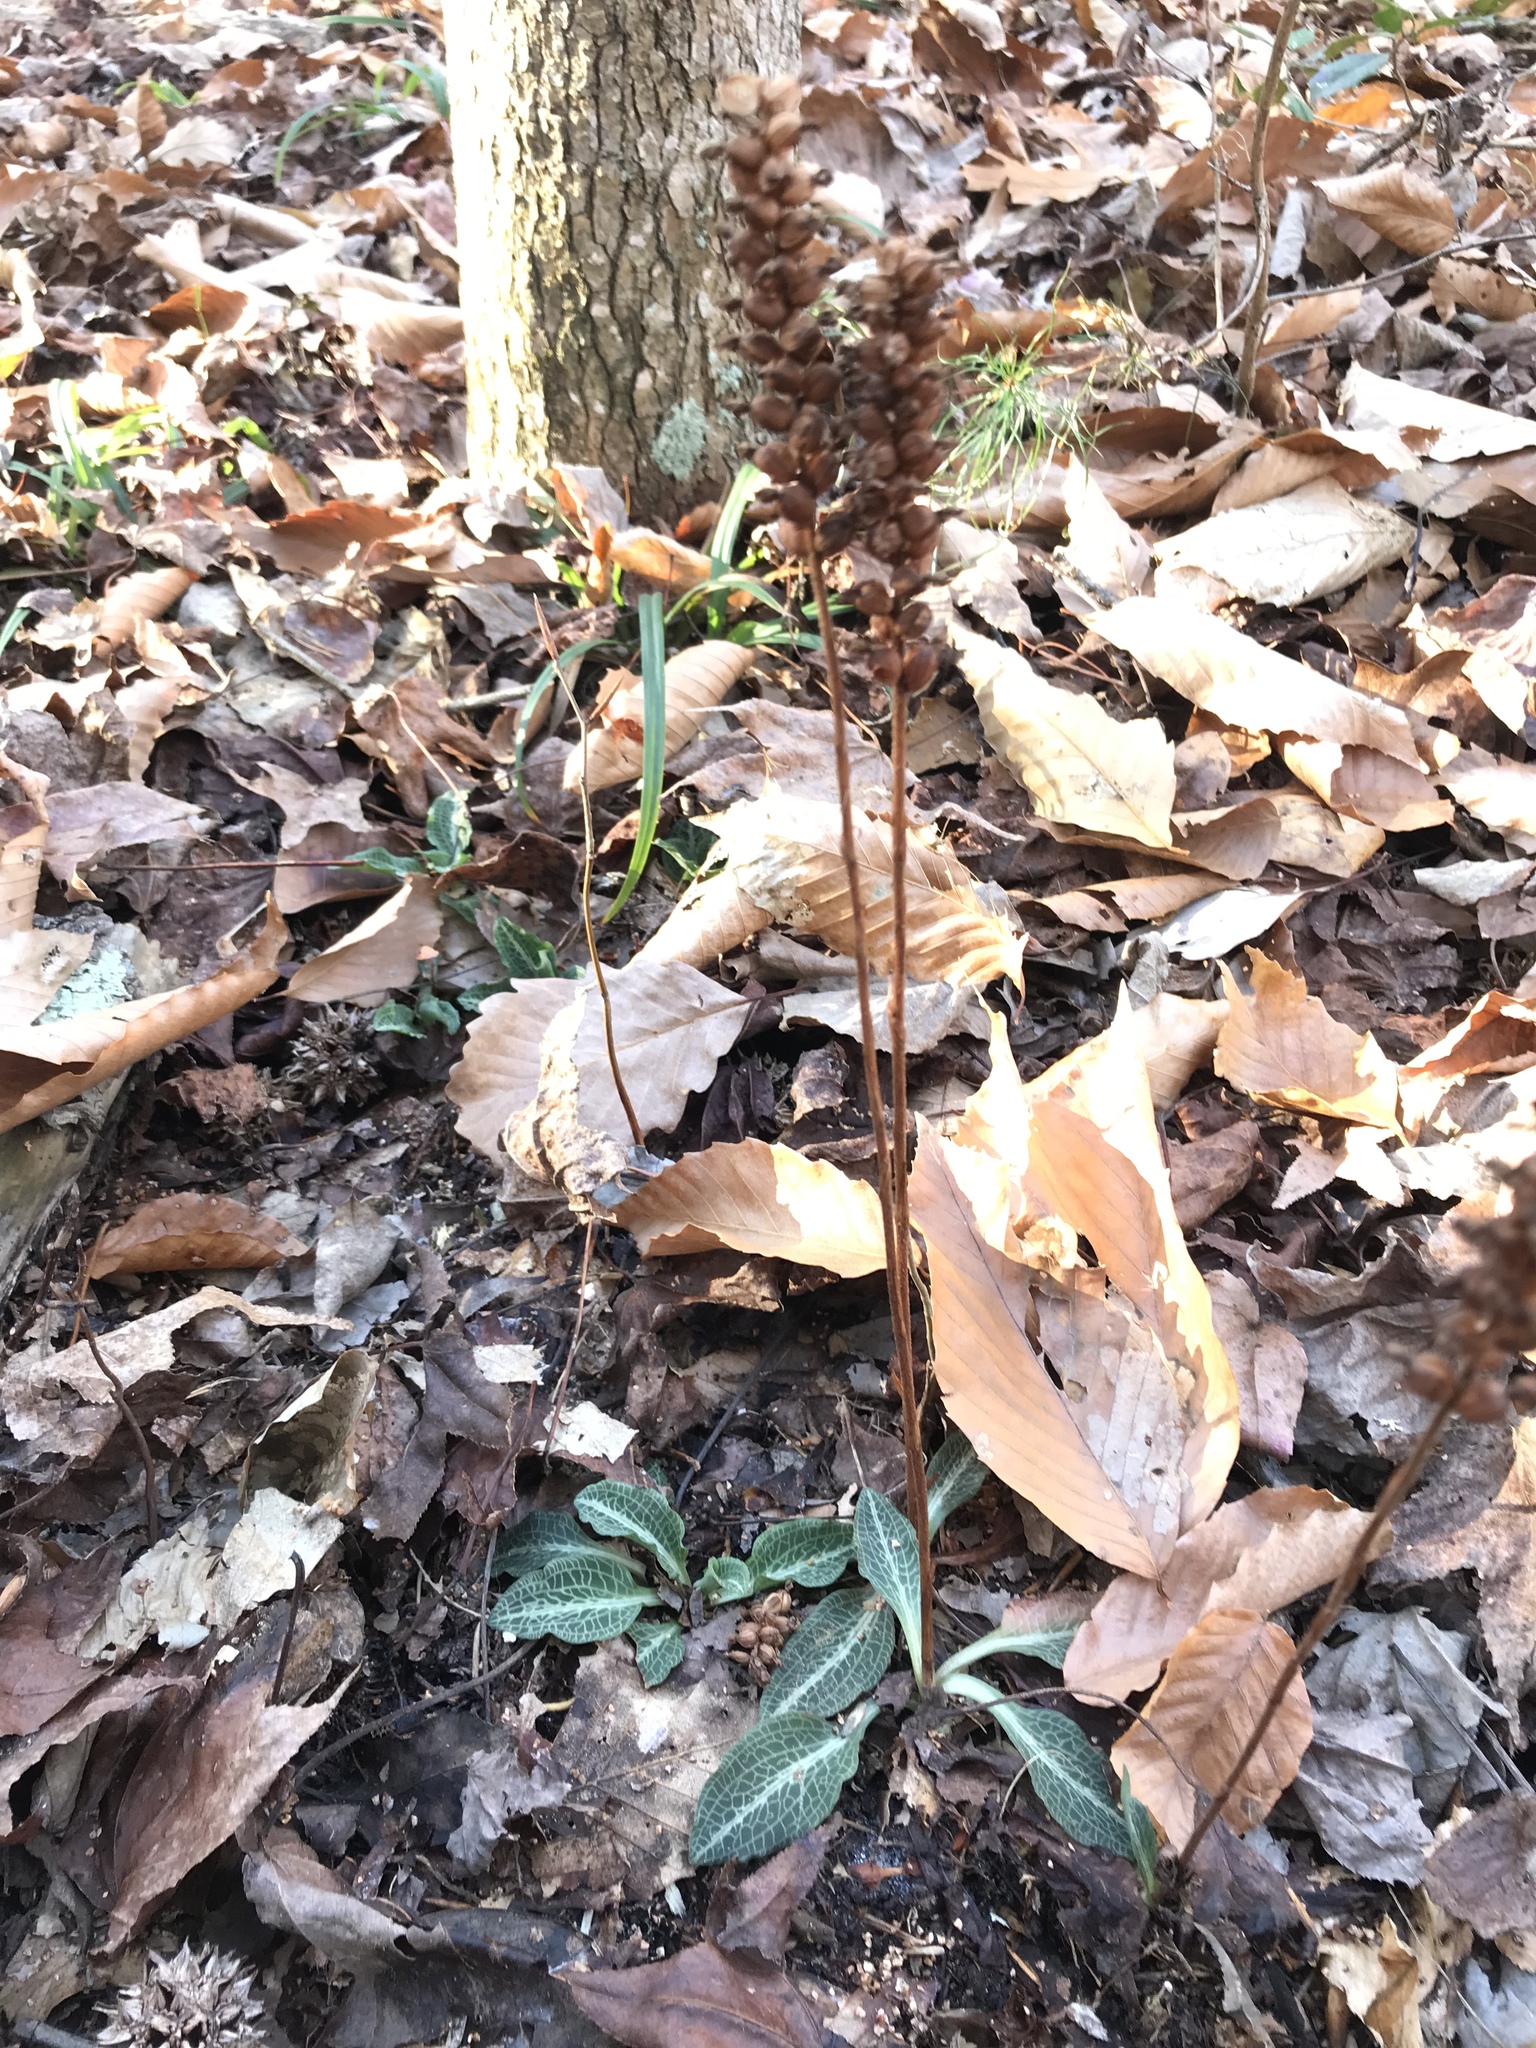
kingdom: Plantae
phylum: Tracheophyta
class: Liliopsida
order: Asparagales
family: Orchidaceae
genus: Goodyera
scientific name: Goodyera pubescens
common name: Downy rattlesnake-plantain
